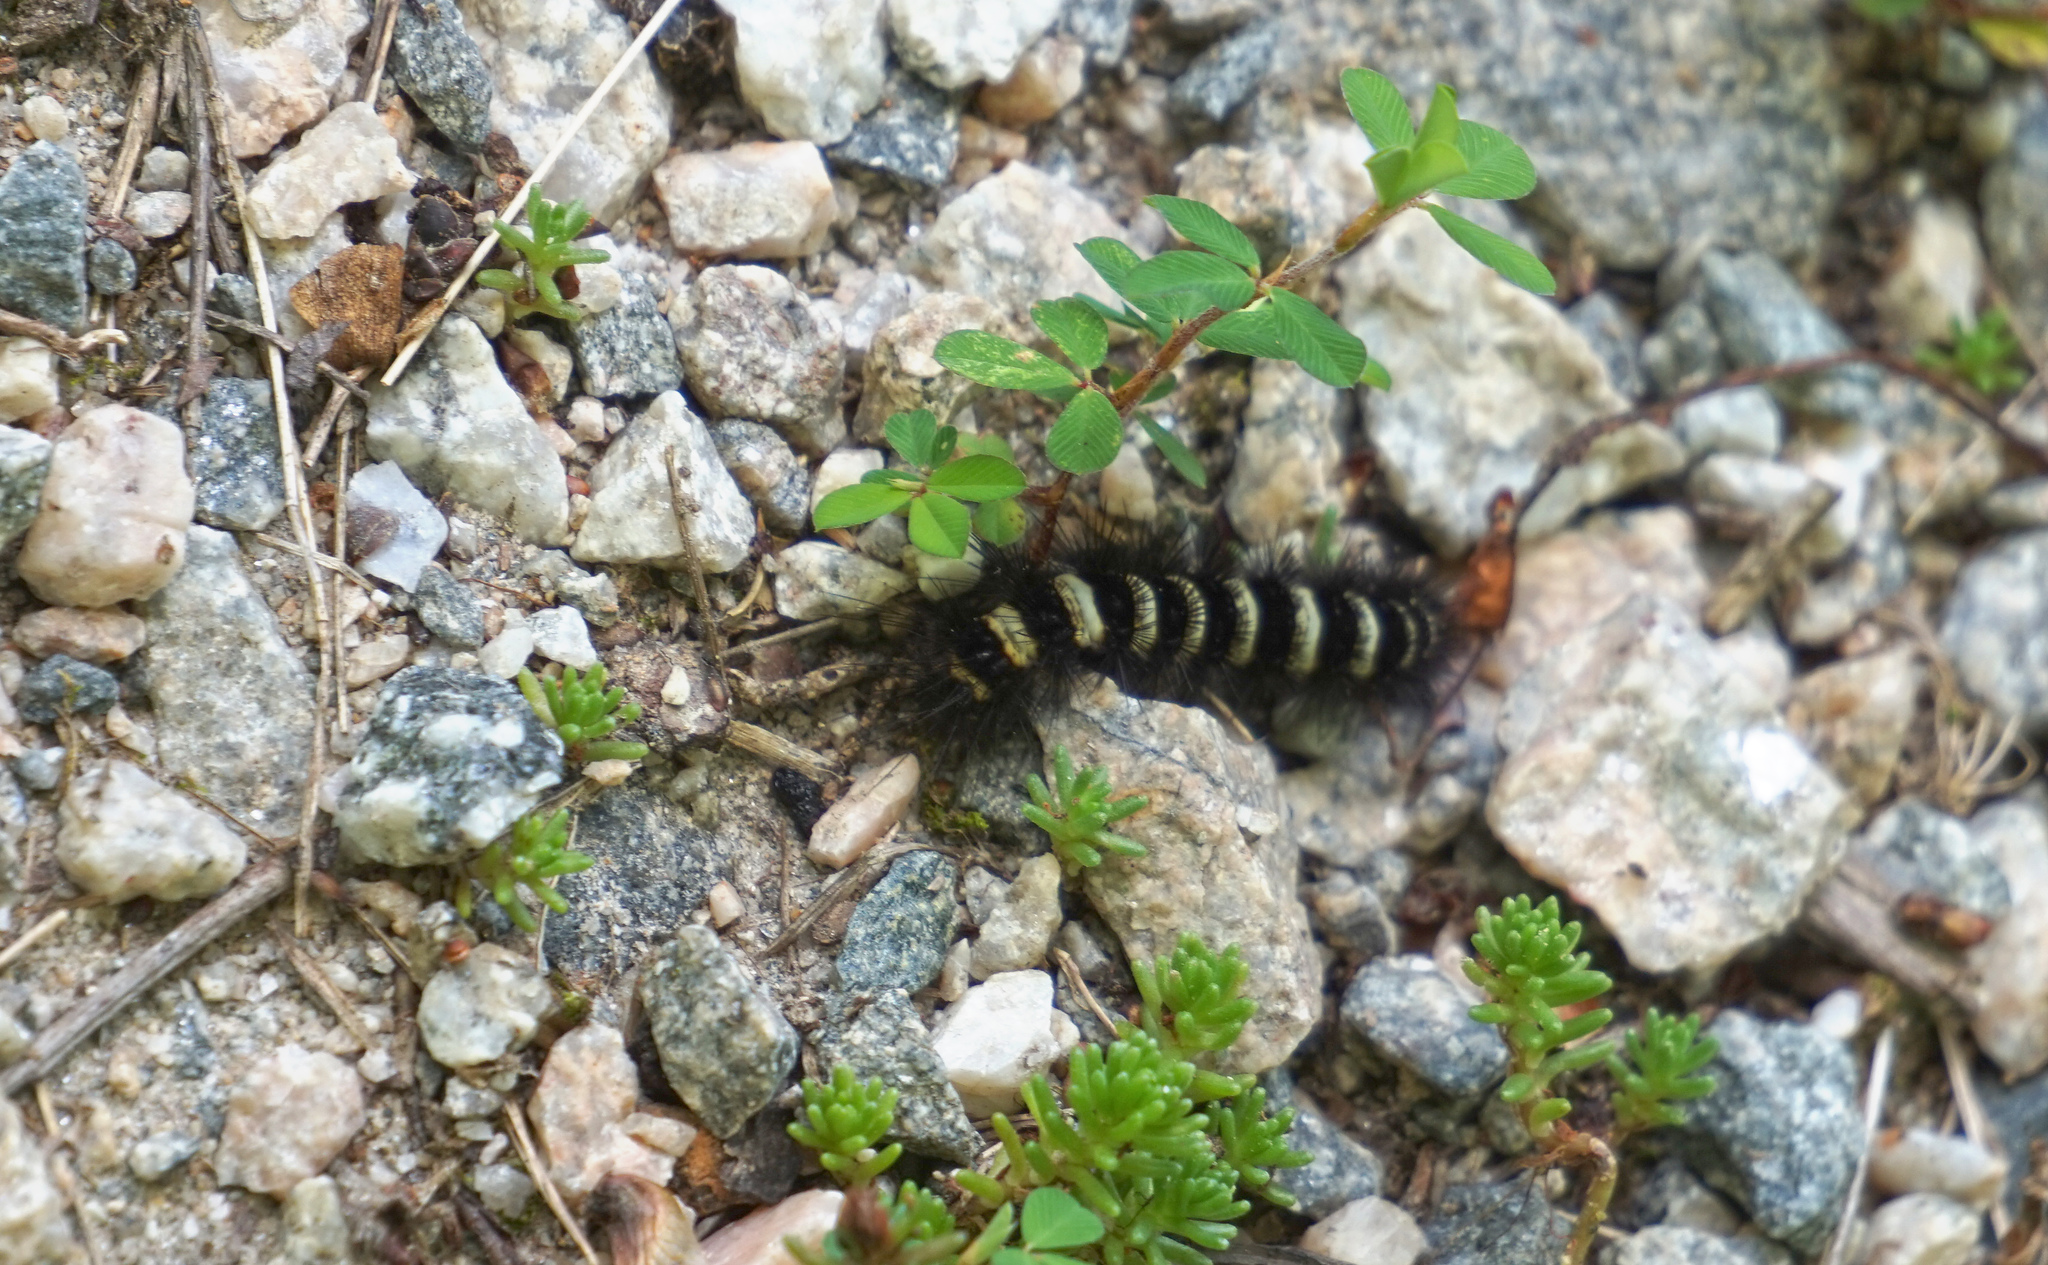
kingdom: Animalia
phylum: Arthropoda
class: Insecta
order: Lepidoptera
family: Erebidae
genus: Spilosoma
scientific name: Spilosoma congrua
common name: Agreeable tiger moth
